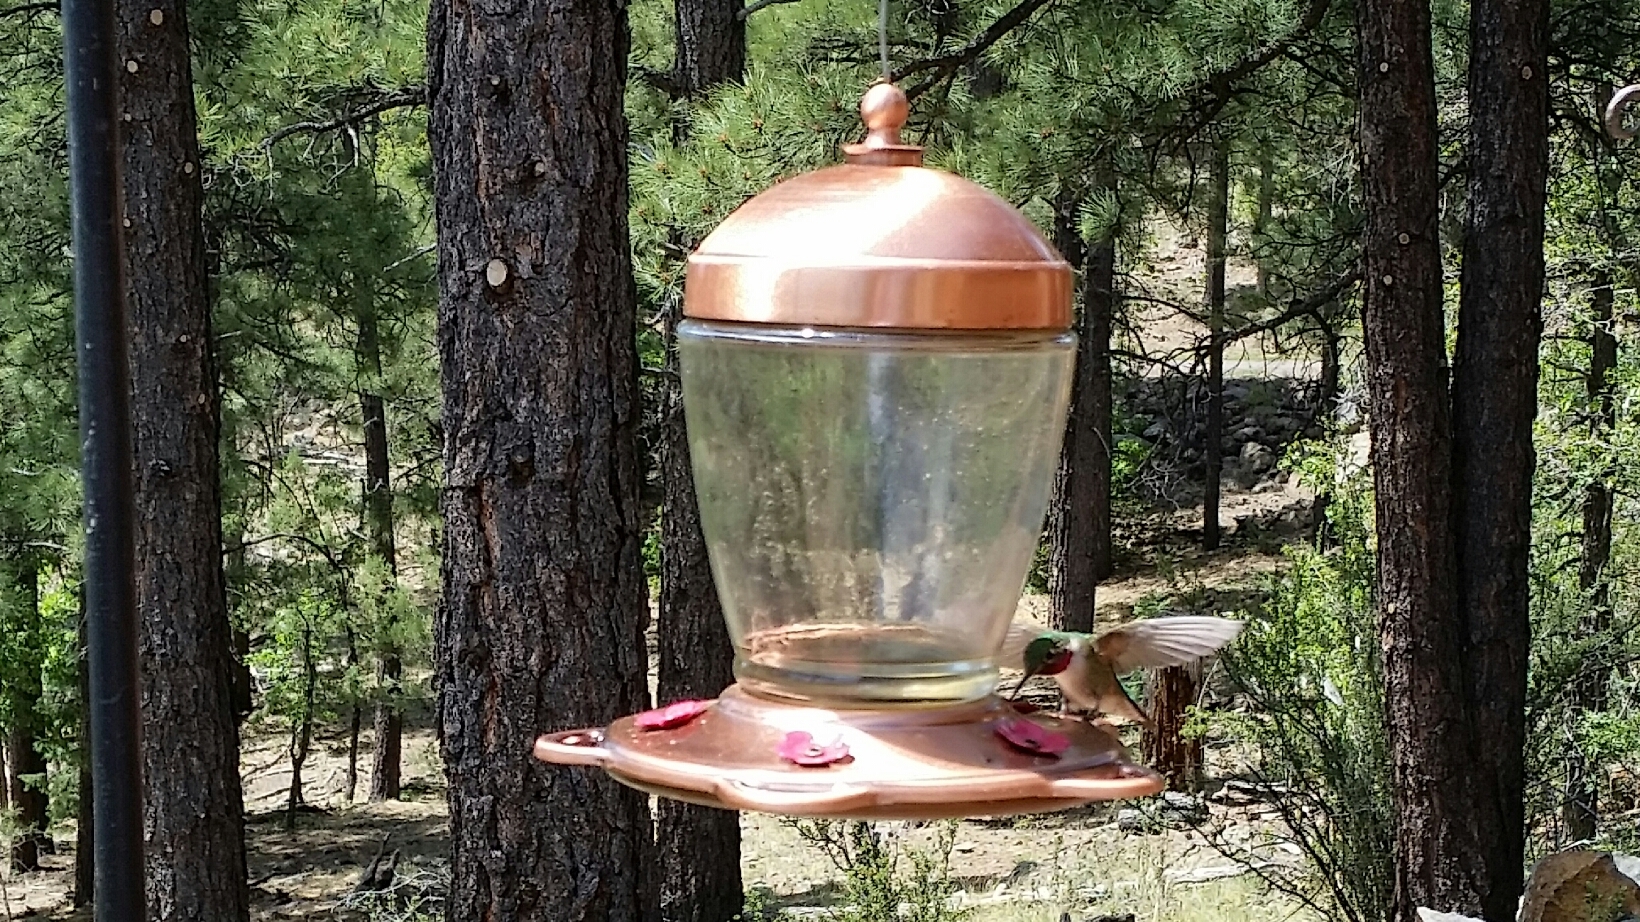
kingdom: Animalia
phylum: Chordata
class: Aves
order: Apodiformes
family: Trochilidae
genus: Selasphorus
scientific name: Selasphorus platycercus
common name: Broad-tailed hummingbird
